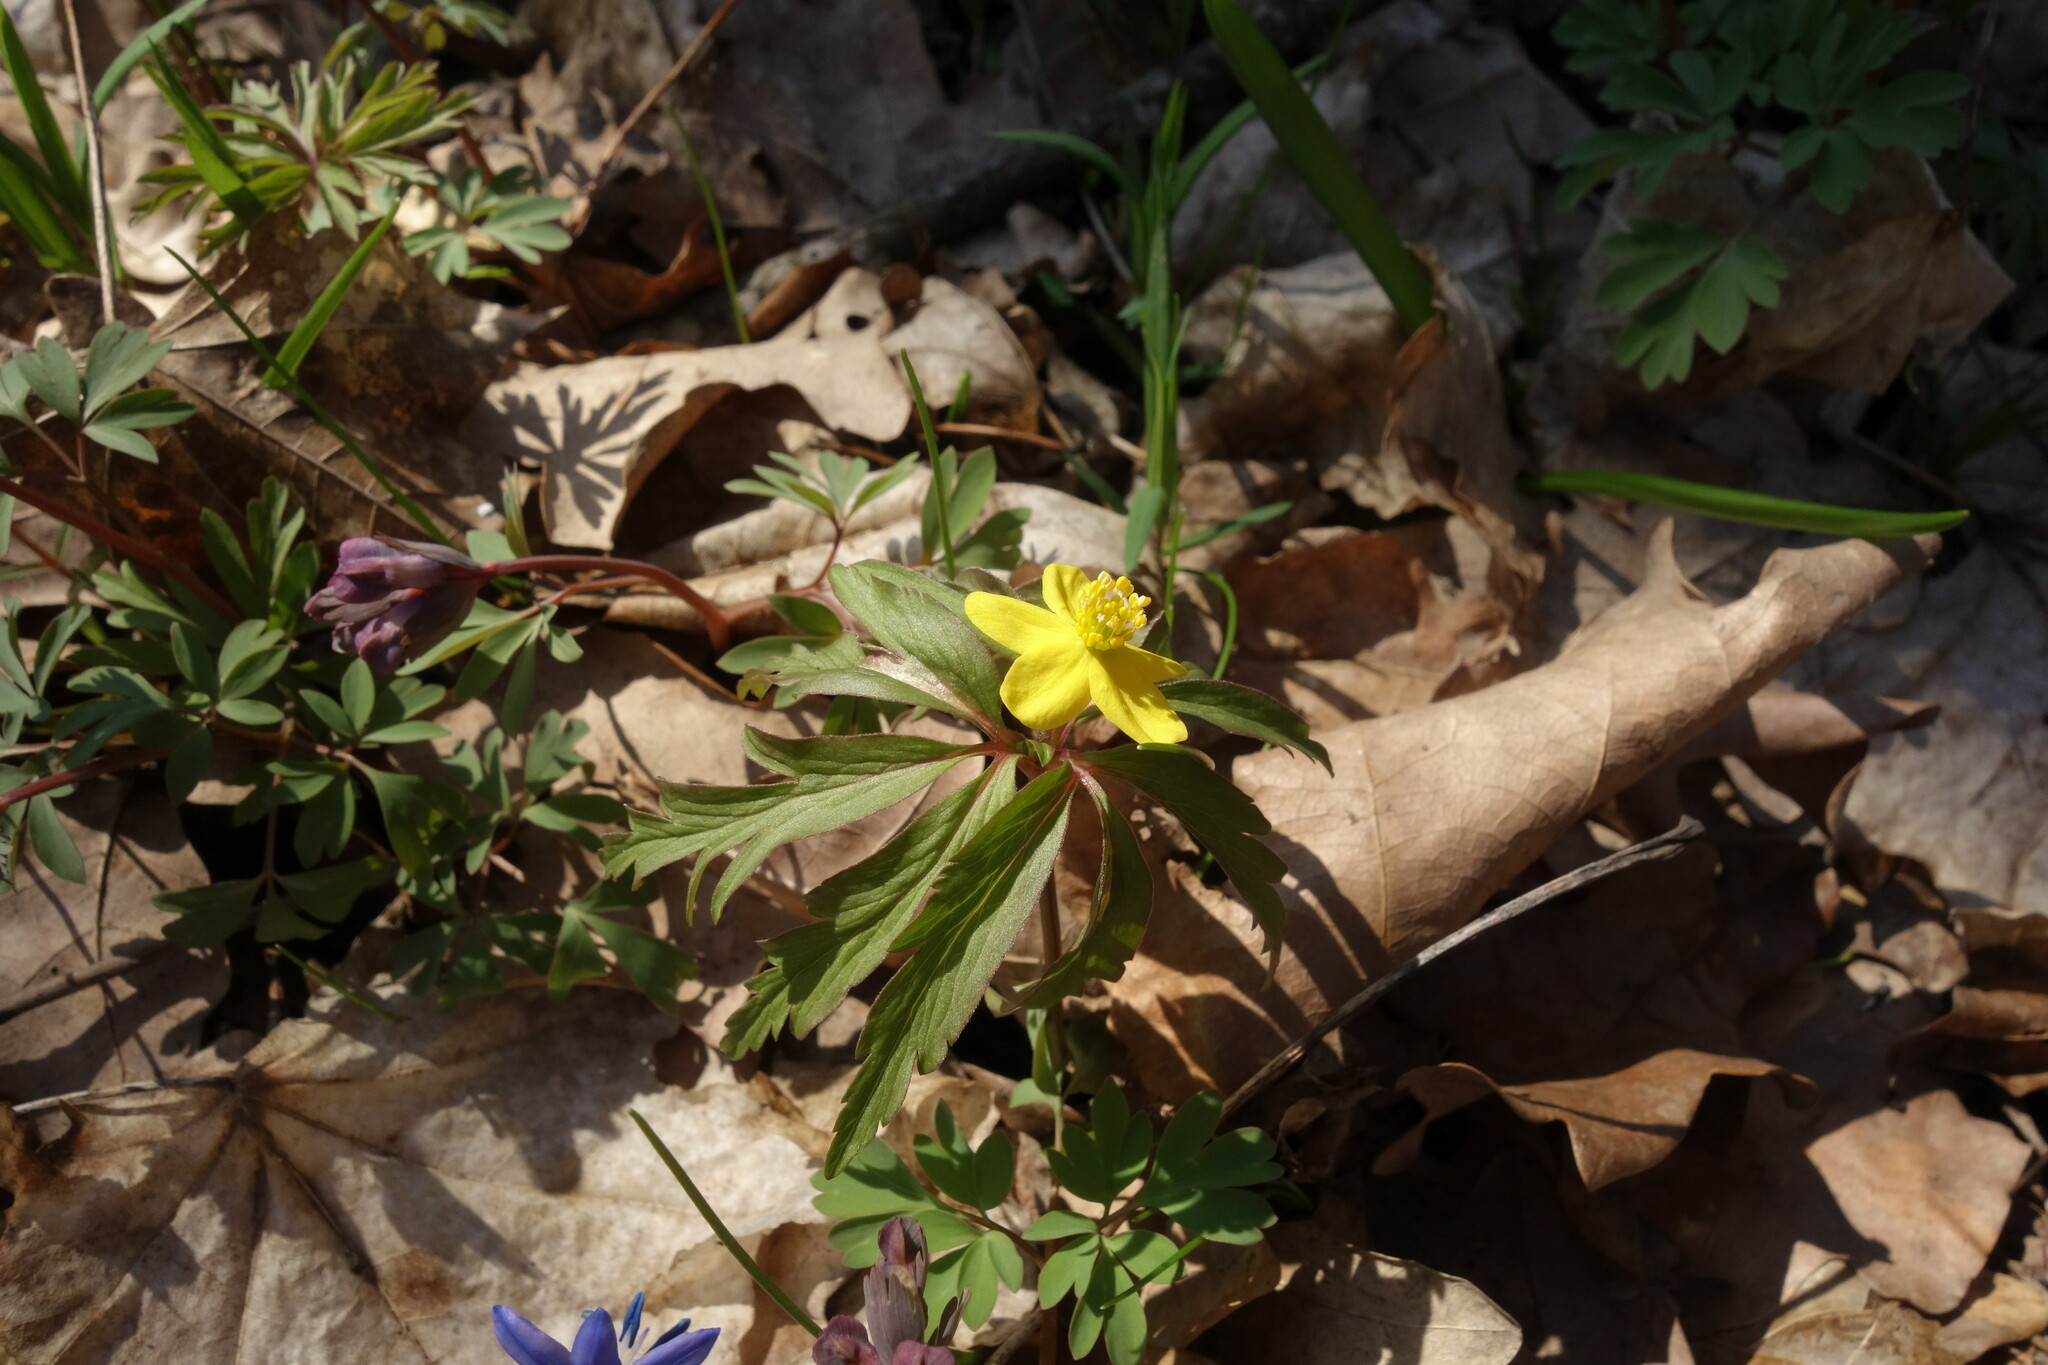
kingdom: Plantae
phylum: Tracheophyta
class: Magnoliopsida
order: Ranunculales
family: Ranunculaceae
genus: Anemone
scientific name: Anemone ranunculoides
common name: Yellow anemone
